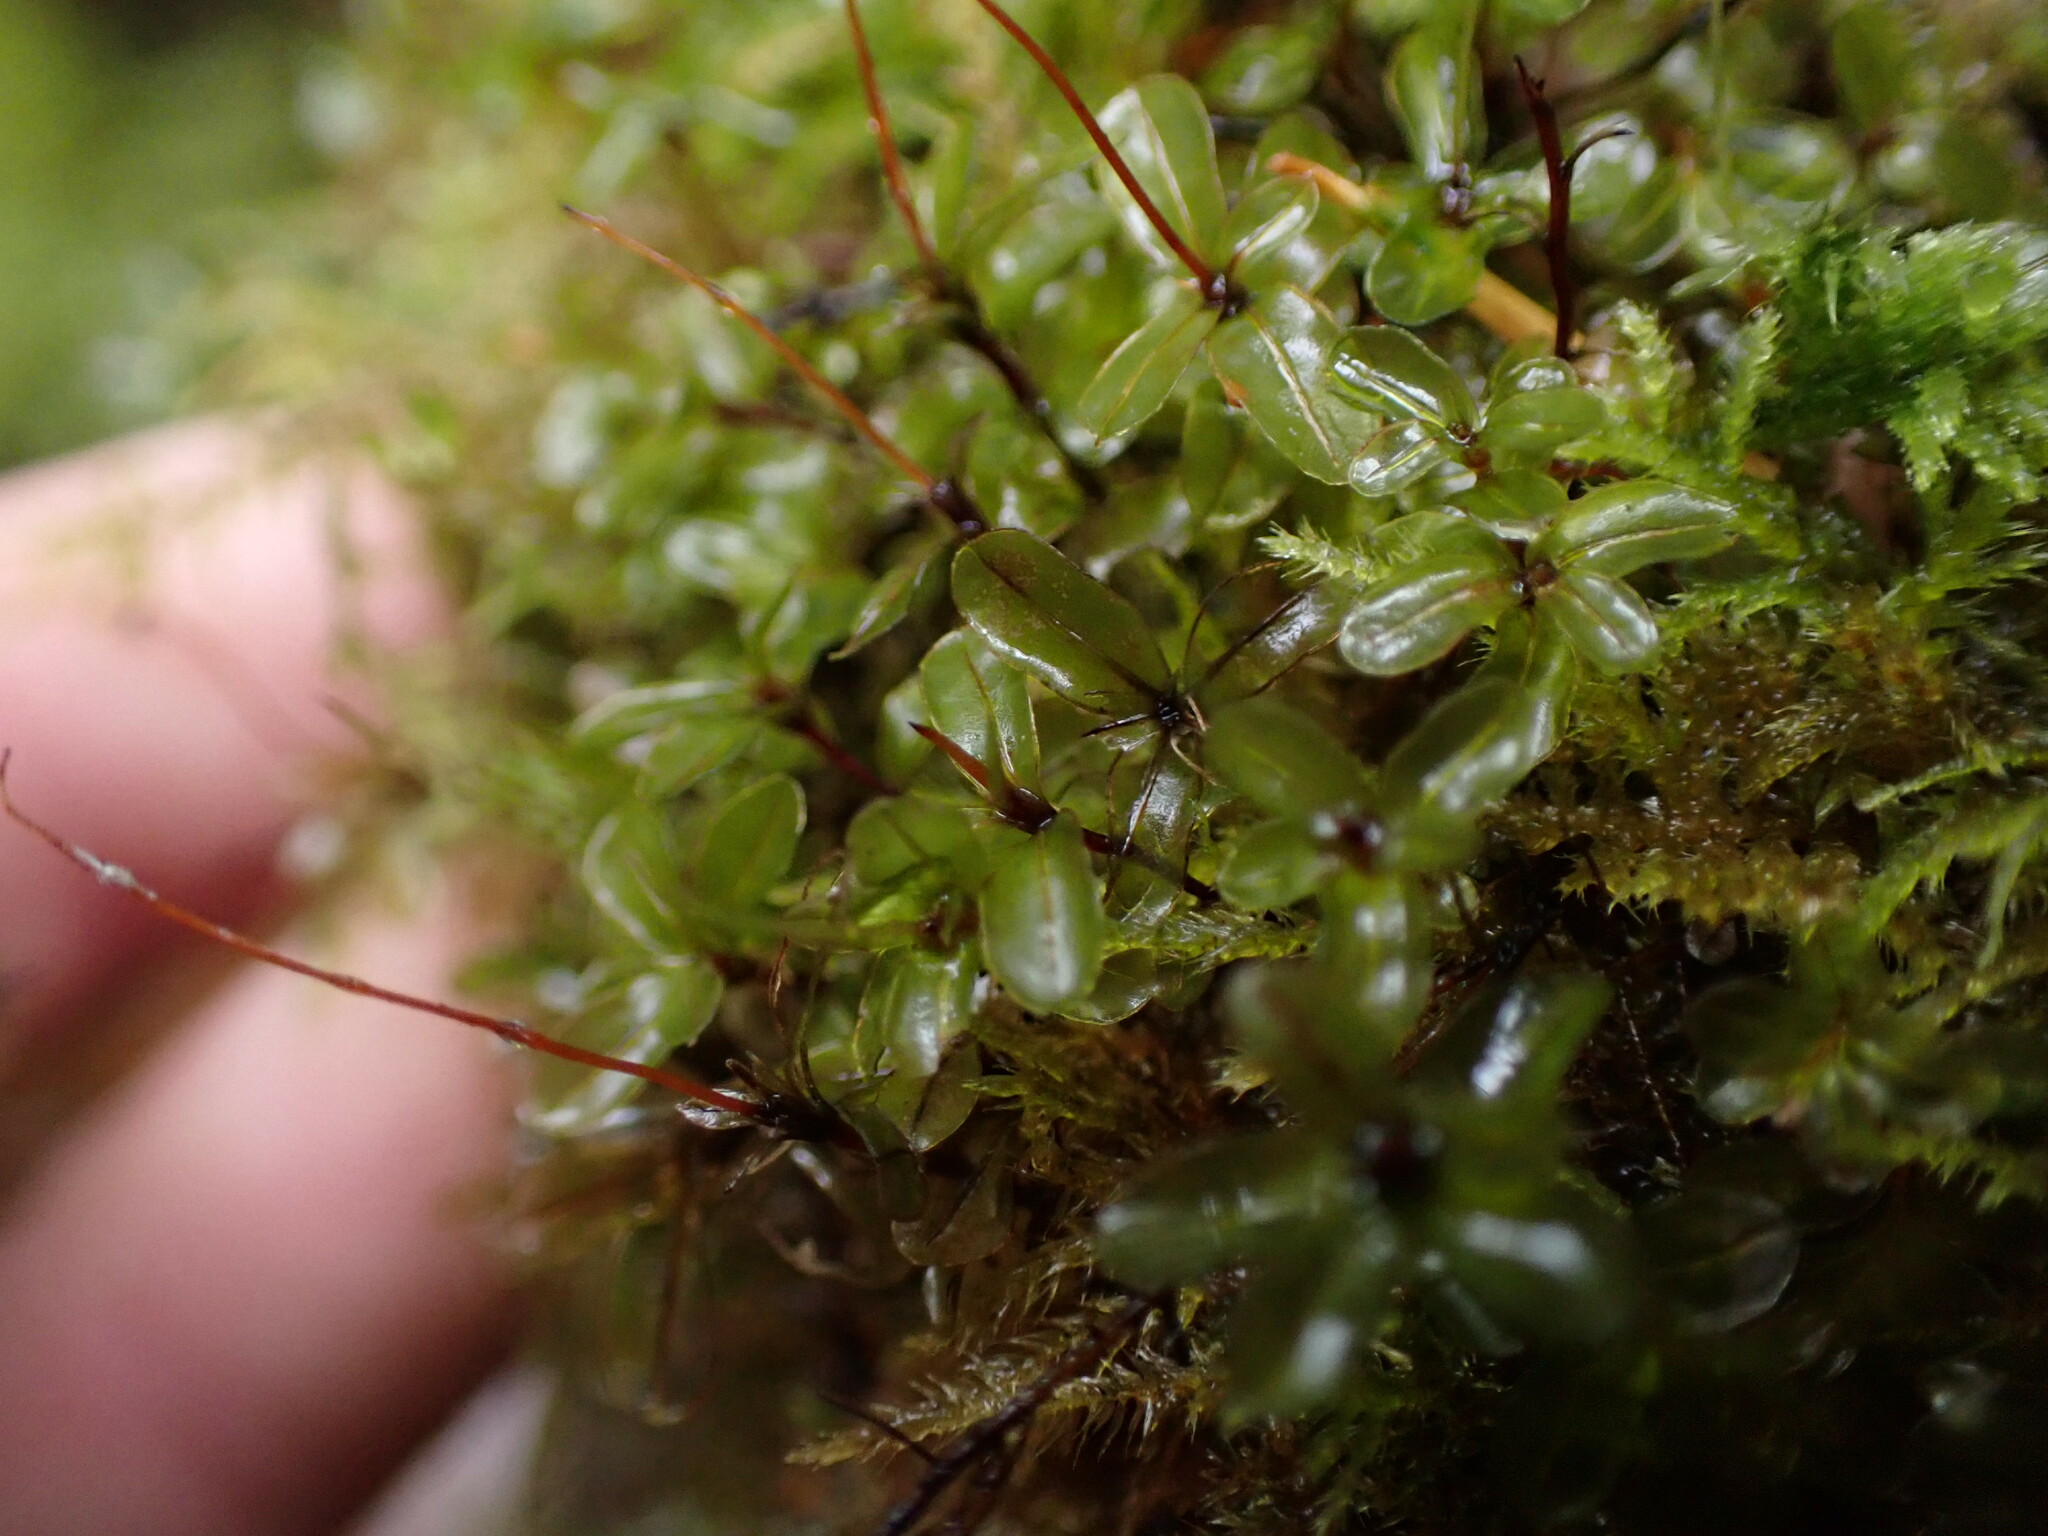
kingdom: Plantae
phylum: Bryophyta
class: Bryopsida
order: Bryales
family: Mniaceae
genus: Rhizomnium
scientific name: Rhizomnium glabrescens
